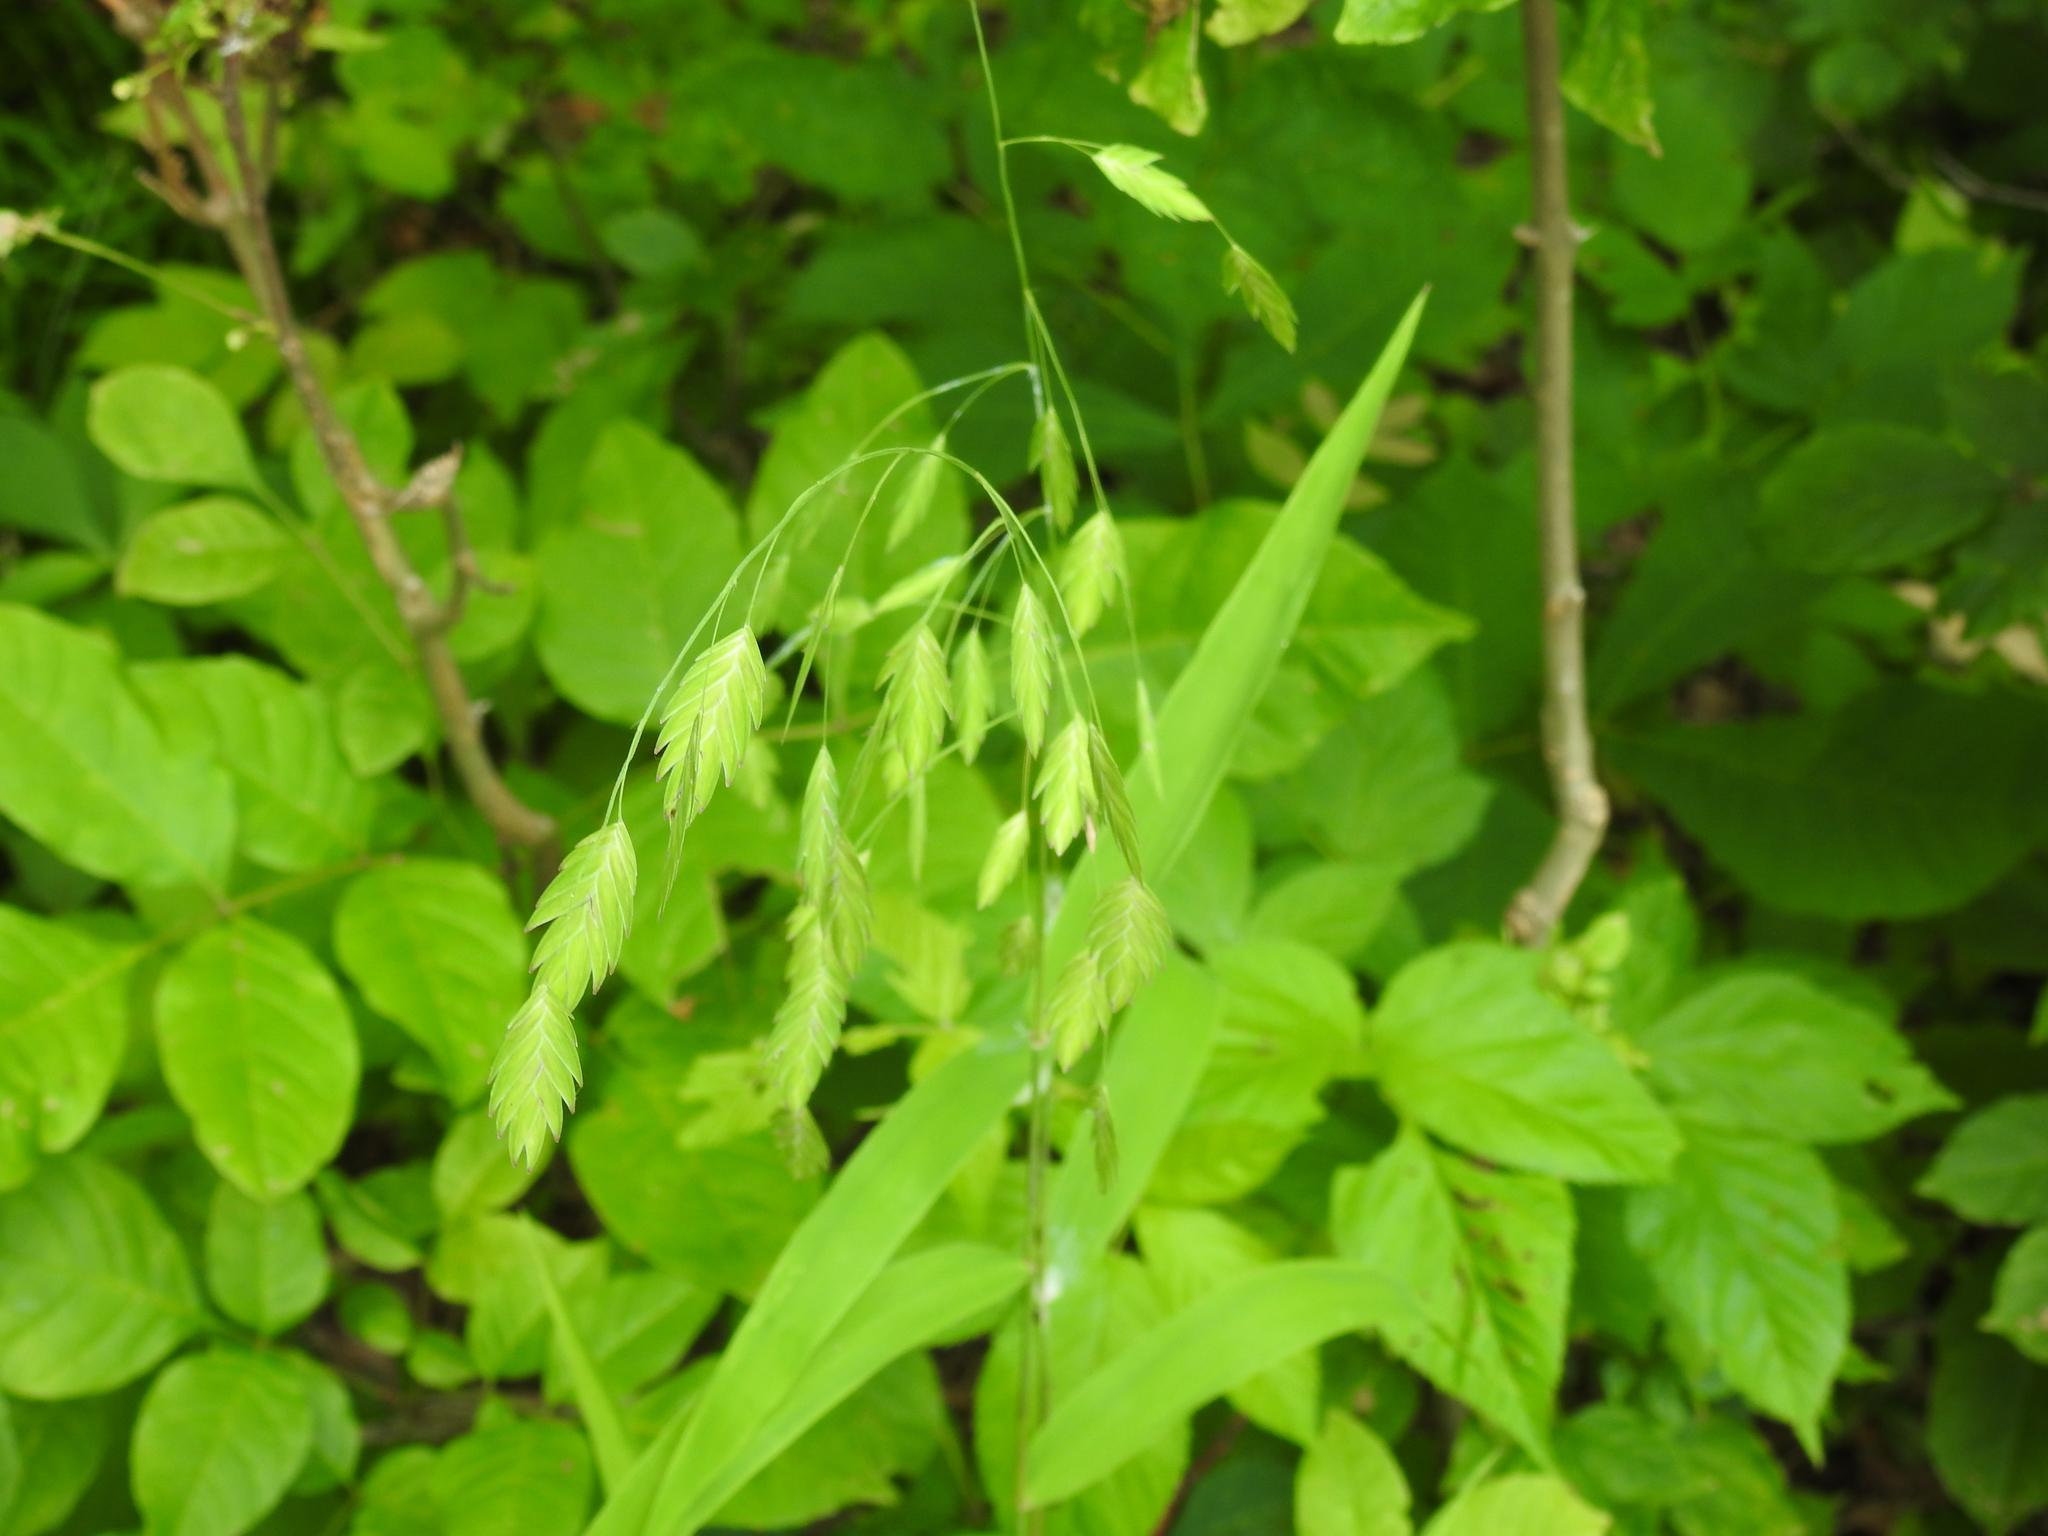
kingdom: Plantae
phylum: Tracheophyta
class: Liliopsida
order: Poales
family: Poaceae
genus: Chasmanthium
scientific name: Chasmanthium latifolium
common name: Broad-leaved chasmanthium
